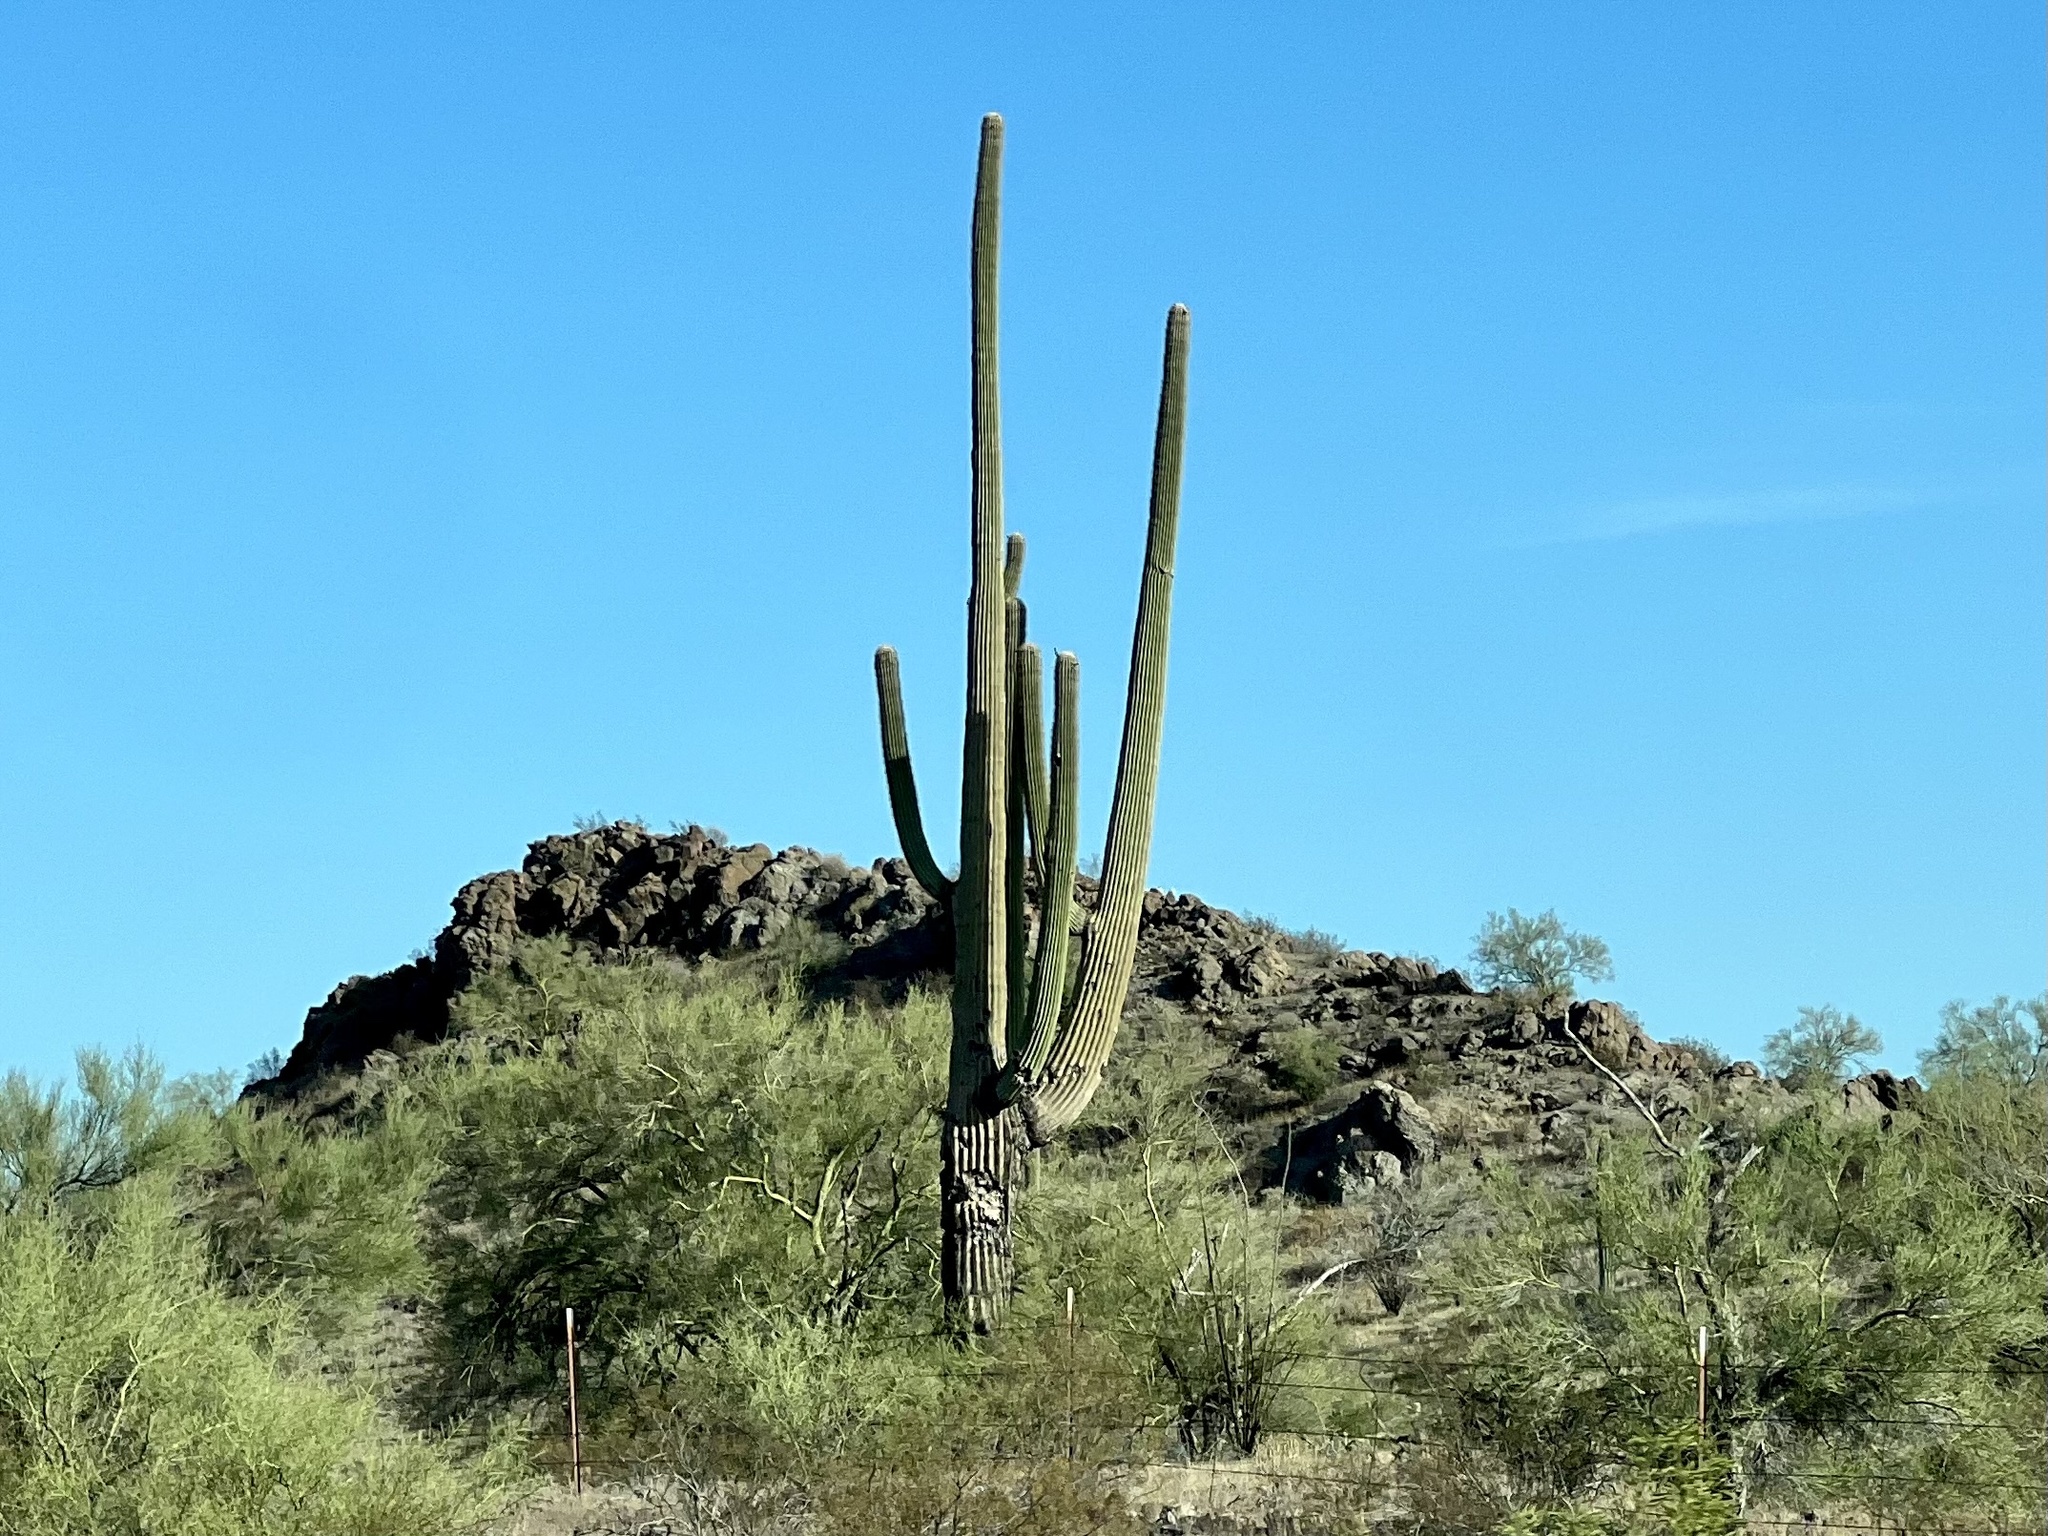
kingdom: Plantae
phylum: Tracheophyta
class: Magnoliopsida
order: Caryophyllales
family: Cactaceae
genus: Carnegiea
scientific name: Carnegiea gigantea
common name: Saguaro
